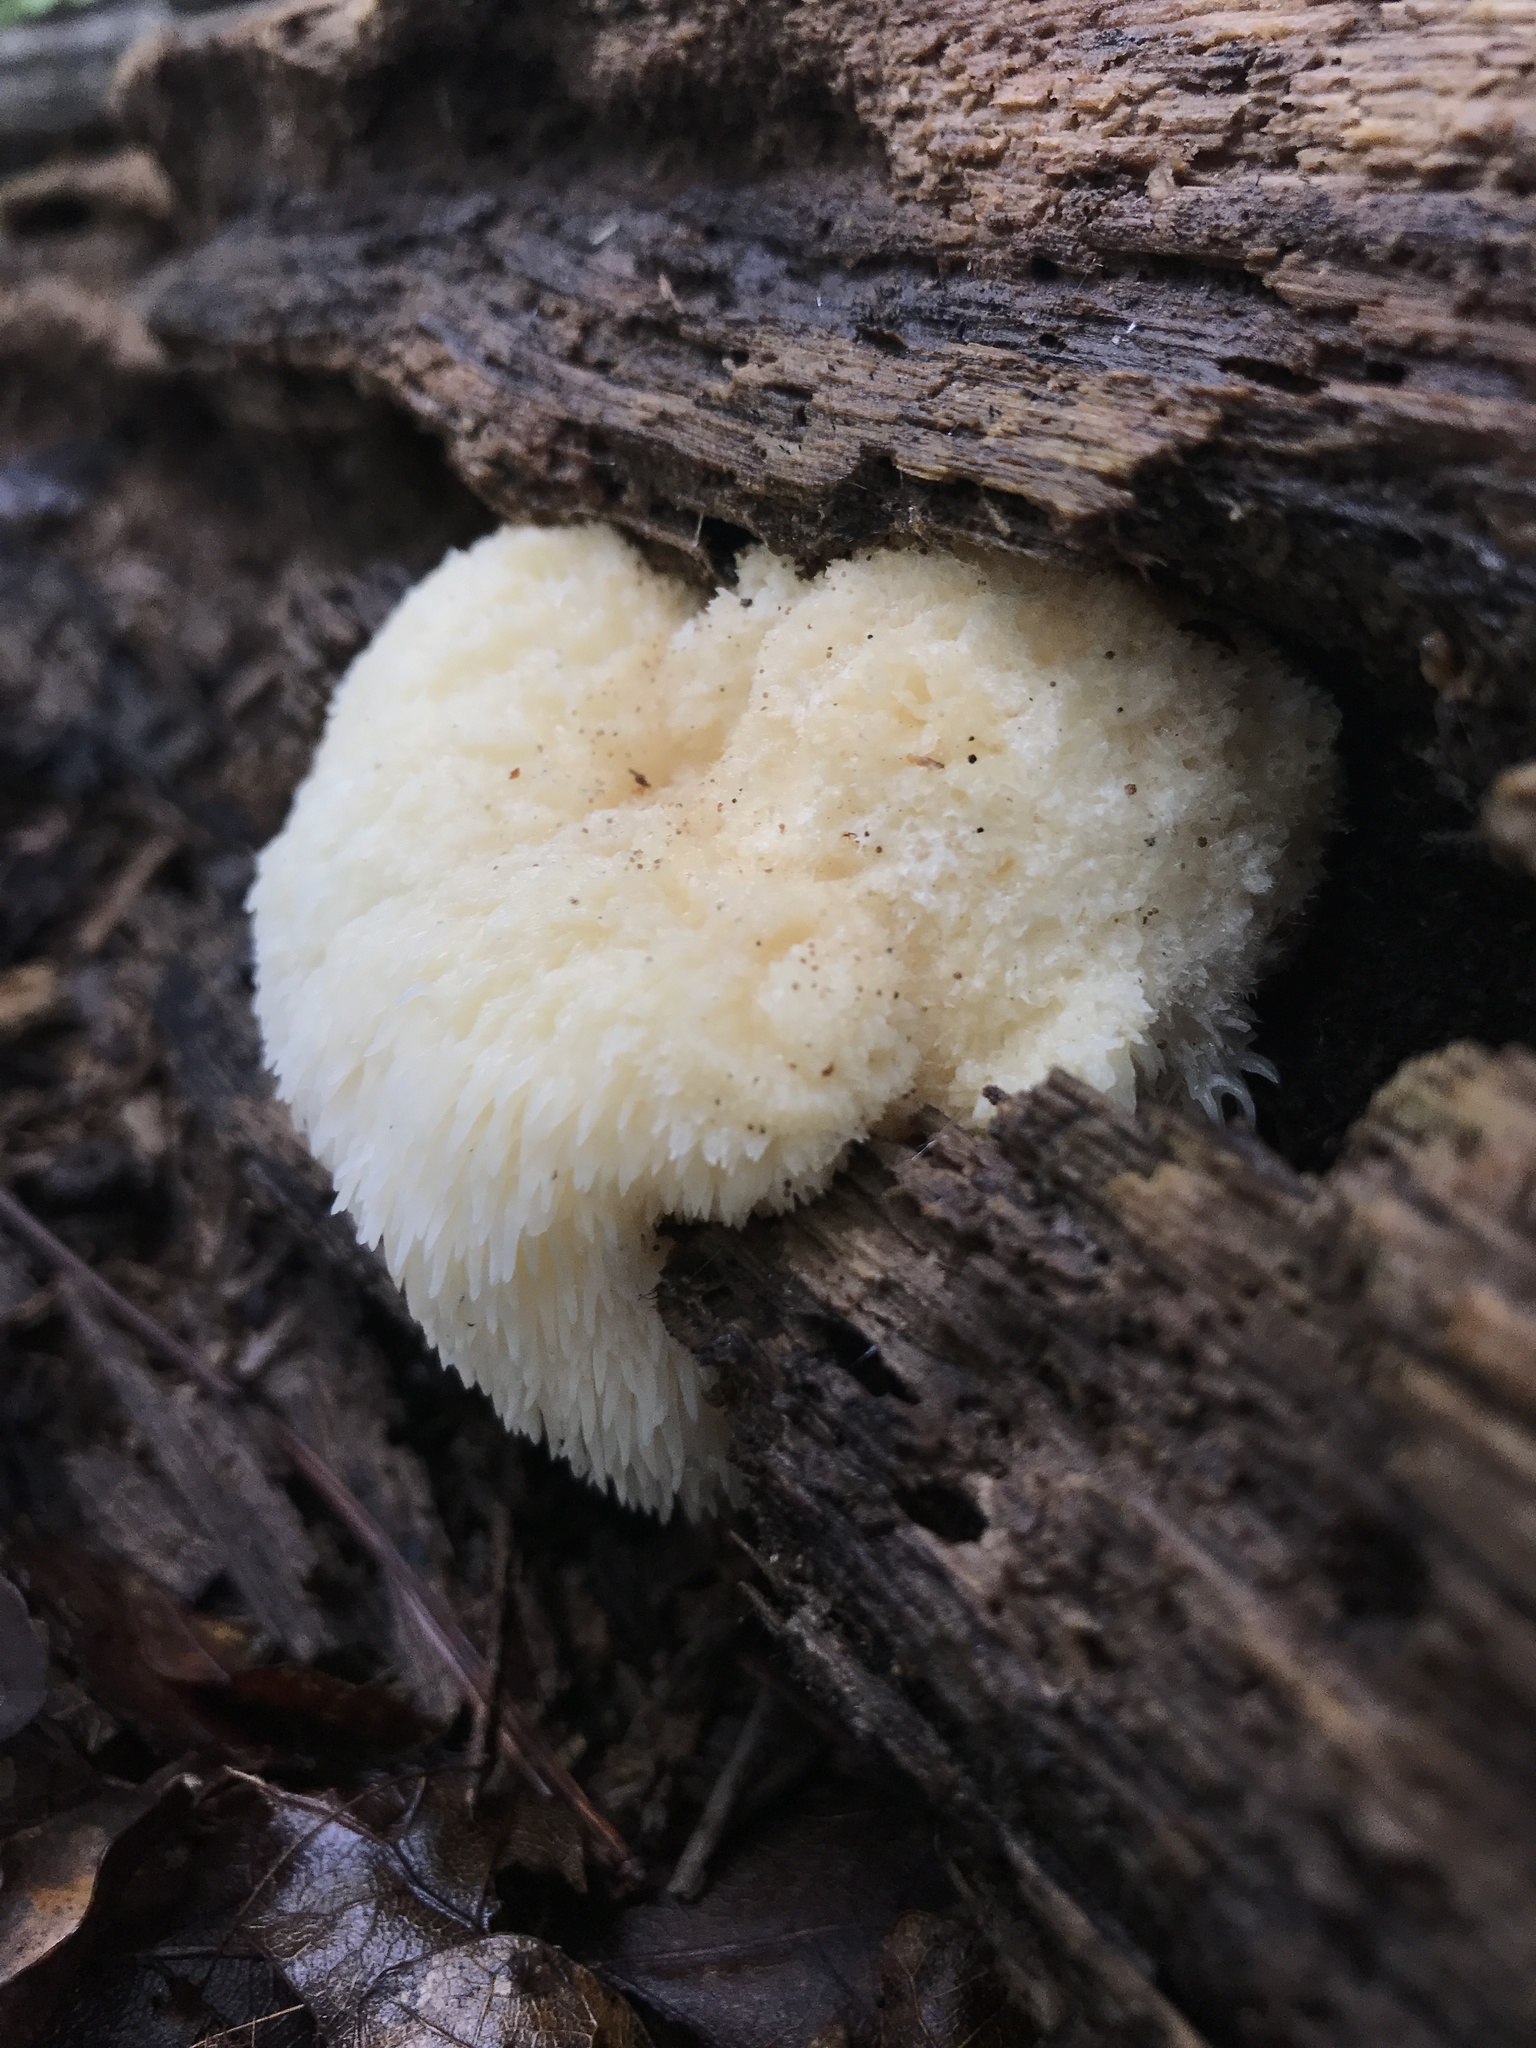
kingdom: Fungi
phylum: Basidiomycota
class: Agaricomycetes
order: Russulales
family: Hericiaceae
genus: Hericium
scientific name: Hericium erinaceus
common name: Bearded tooth
